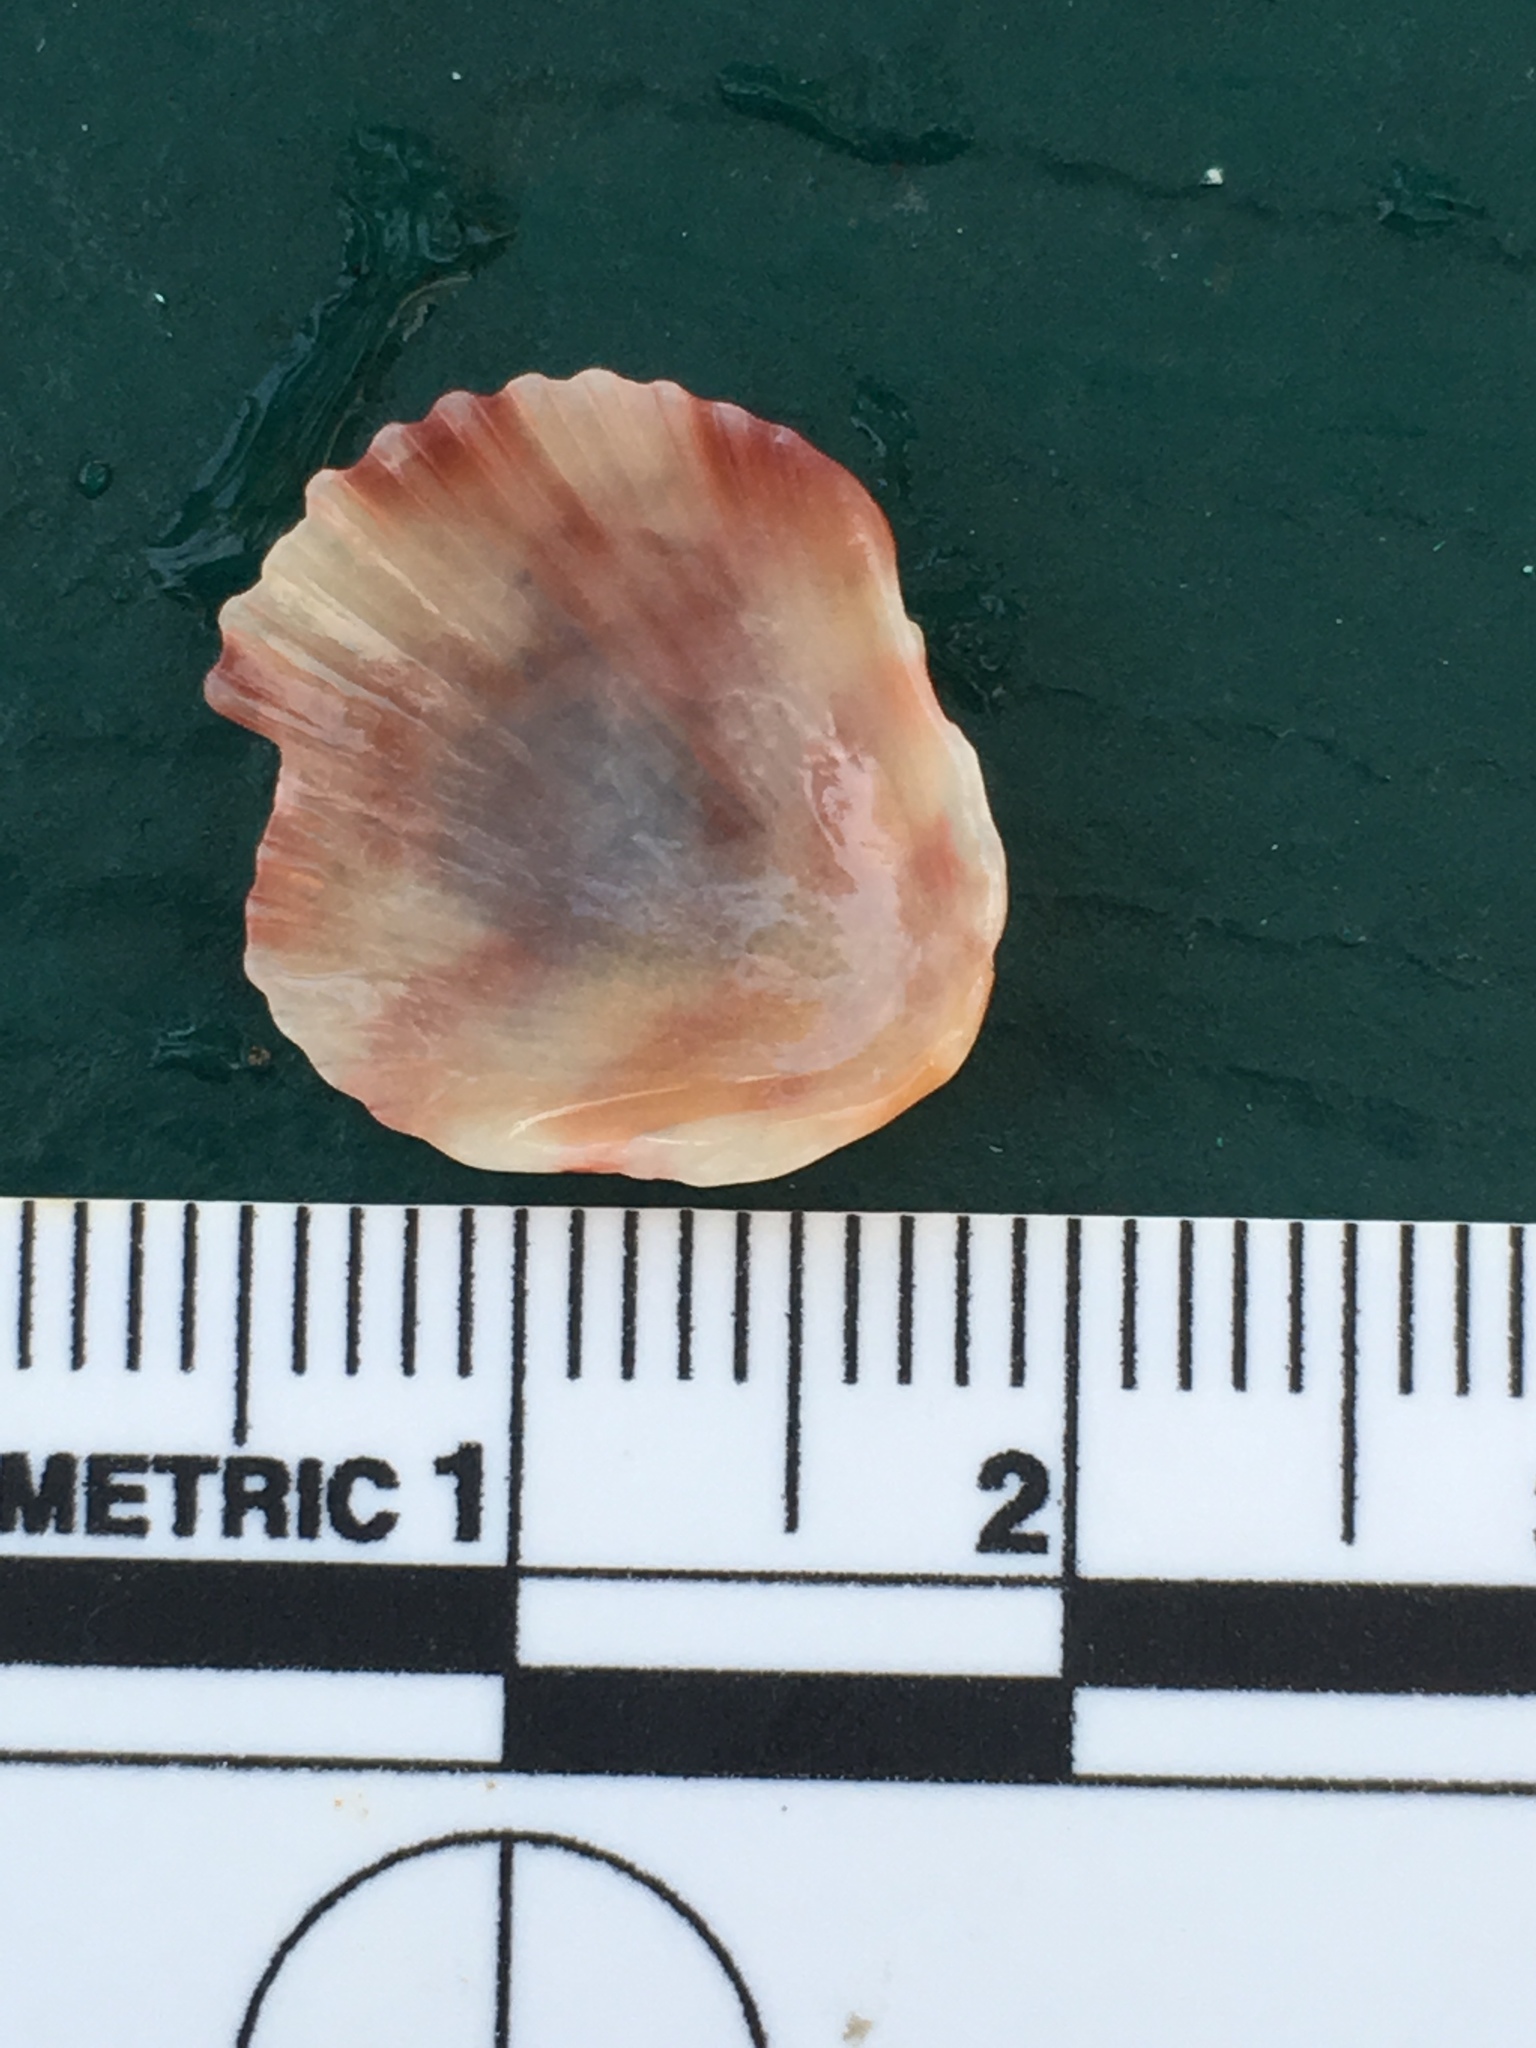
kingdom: Animalia
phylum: Mollusca
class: Bivalvia
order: Pectinida
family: Pectinidae
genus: Argopecten
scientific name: Argopecten gibbus
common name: Atlantic calico scallop
